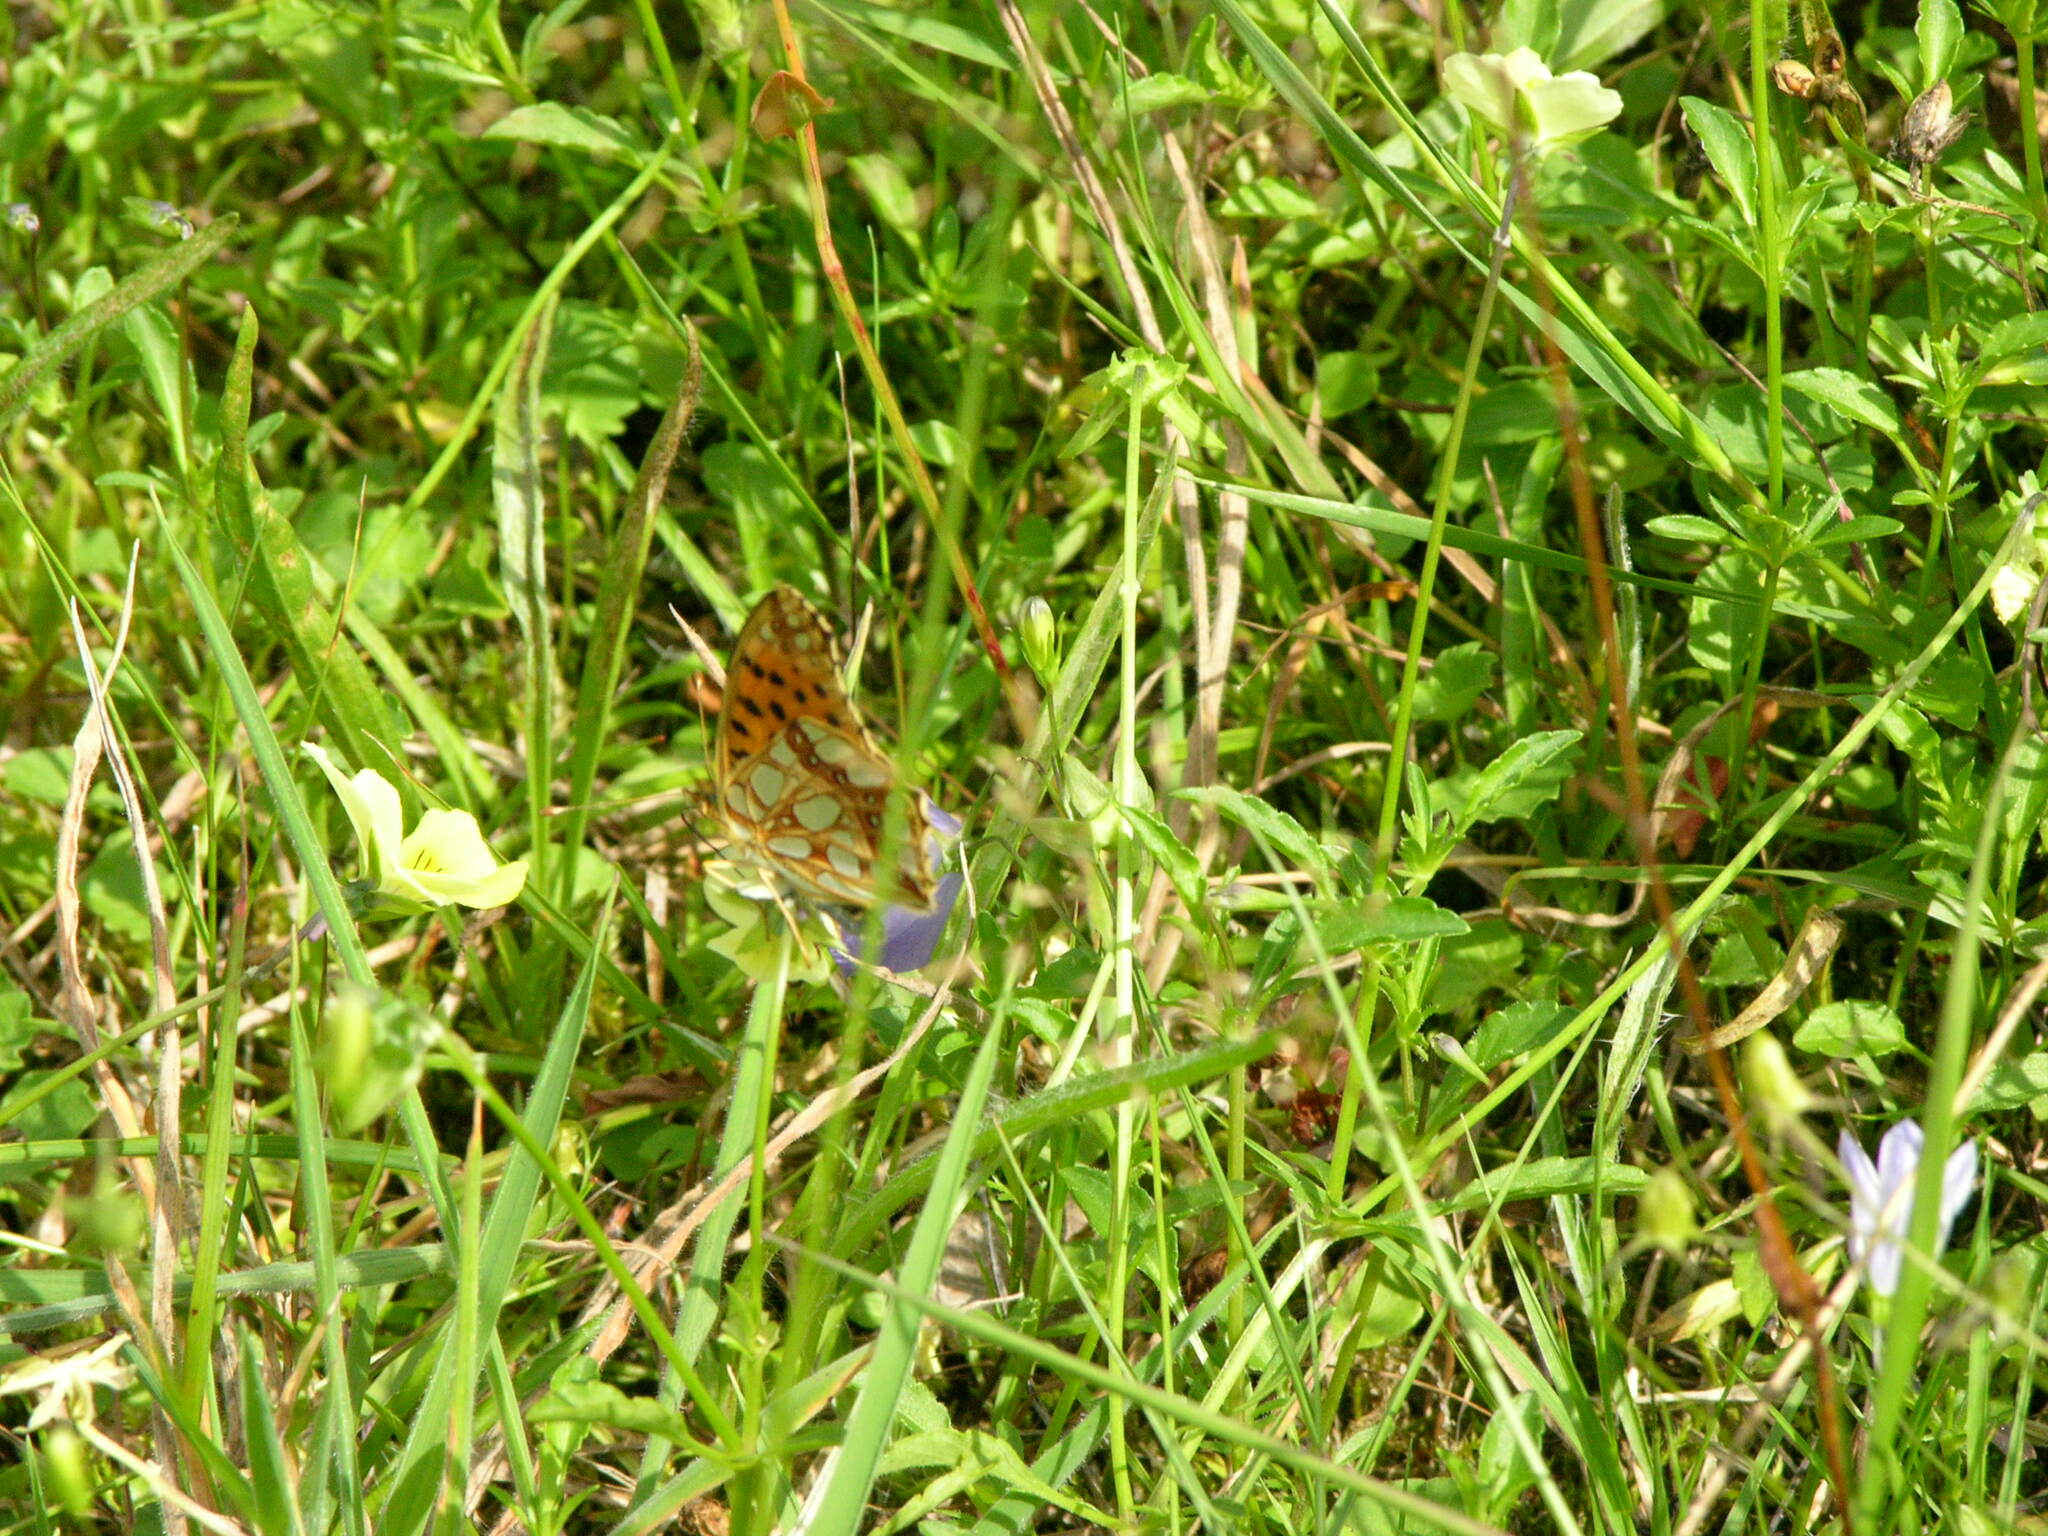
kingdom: Animalia
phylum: Arthropoda
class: Insecta
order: Lepidoptera
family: Nymphalidae
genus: Issoria
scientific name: Issoria lathonia
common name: Queen of spain fritillary
